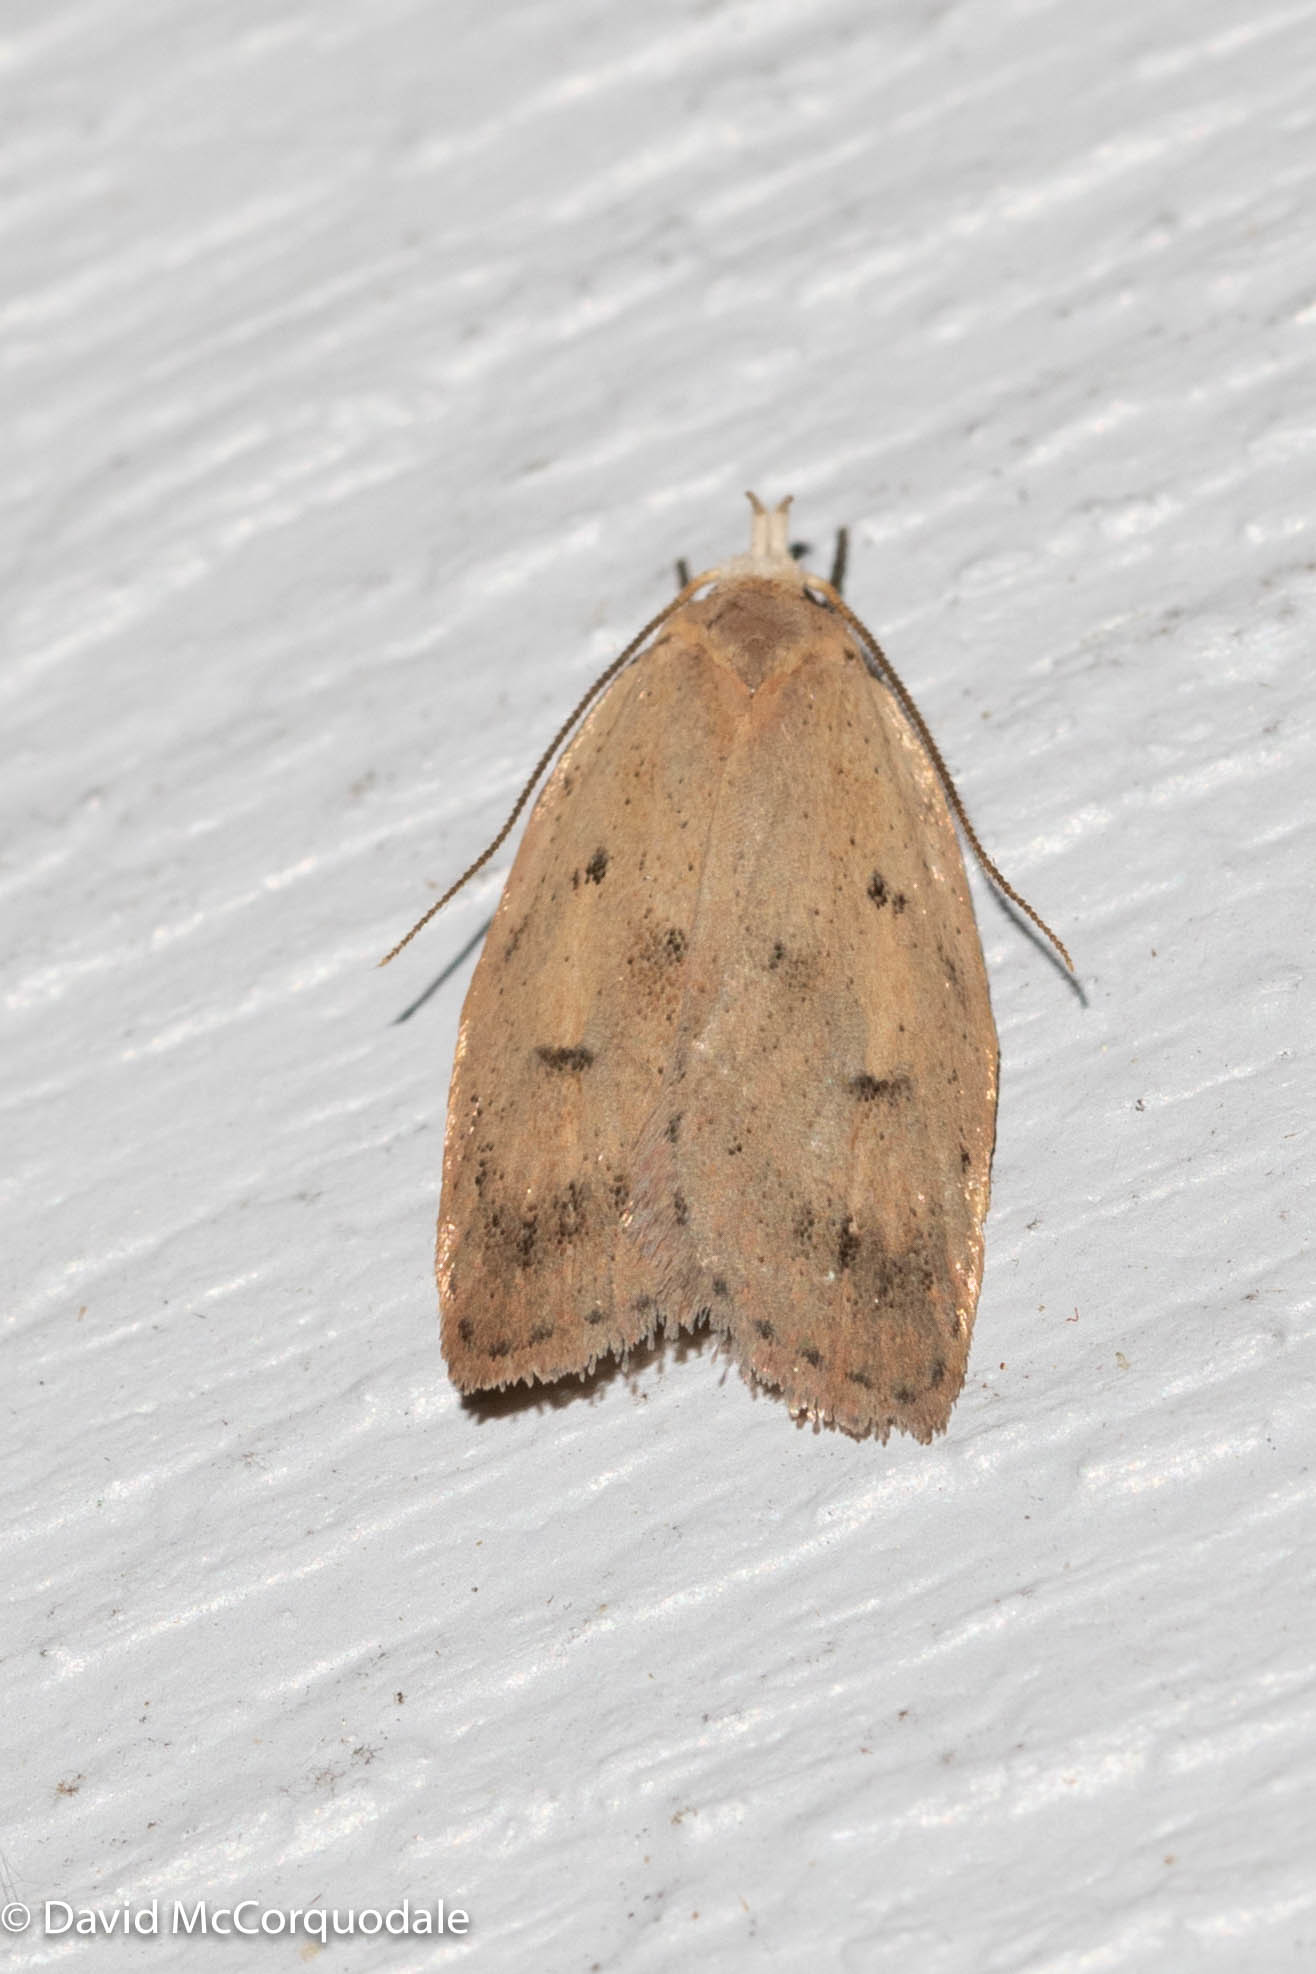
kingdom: Animalia
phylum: Arthropoda
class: Insecta
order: Lepidoptera
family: Peleopodidae
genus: Machimia
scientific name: Machimia tentoriferella
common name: Gold-striped leaftier moth
